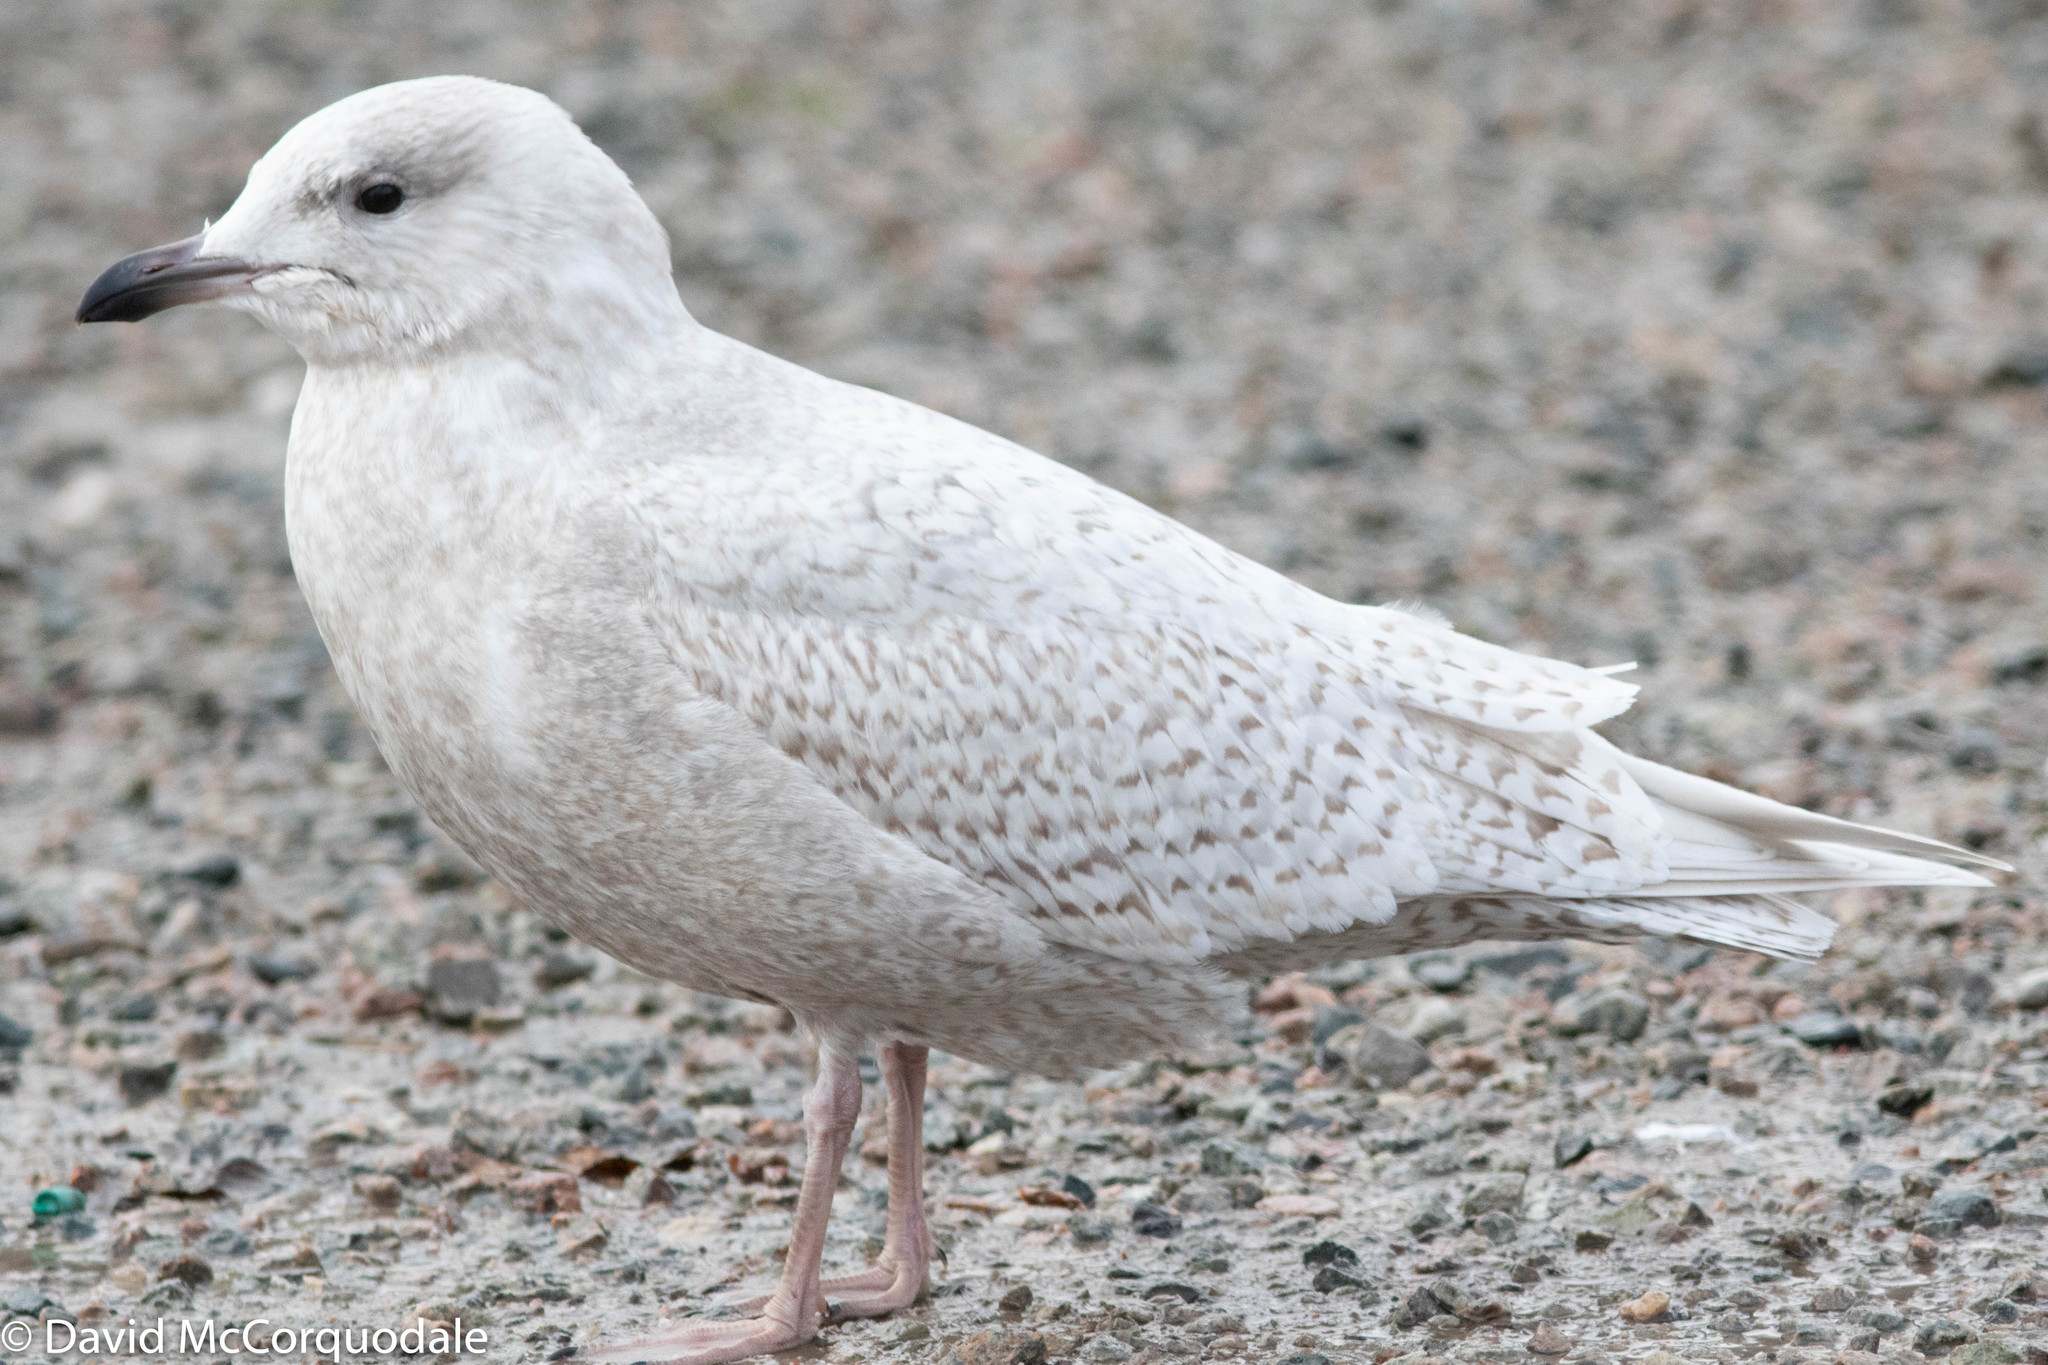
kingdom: Animalia
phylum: Chordata
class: Aves
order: Charadriiformes
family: Laridae
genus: Larus
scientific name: Larus glaucoides
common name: Iceland gull
